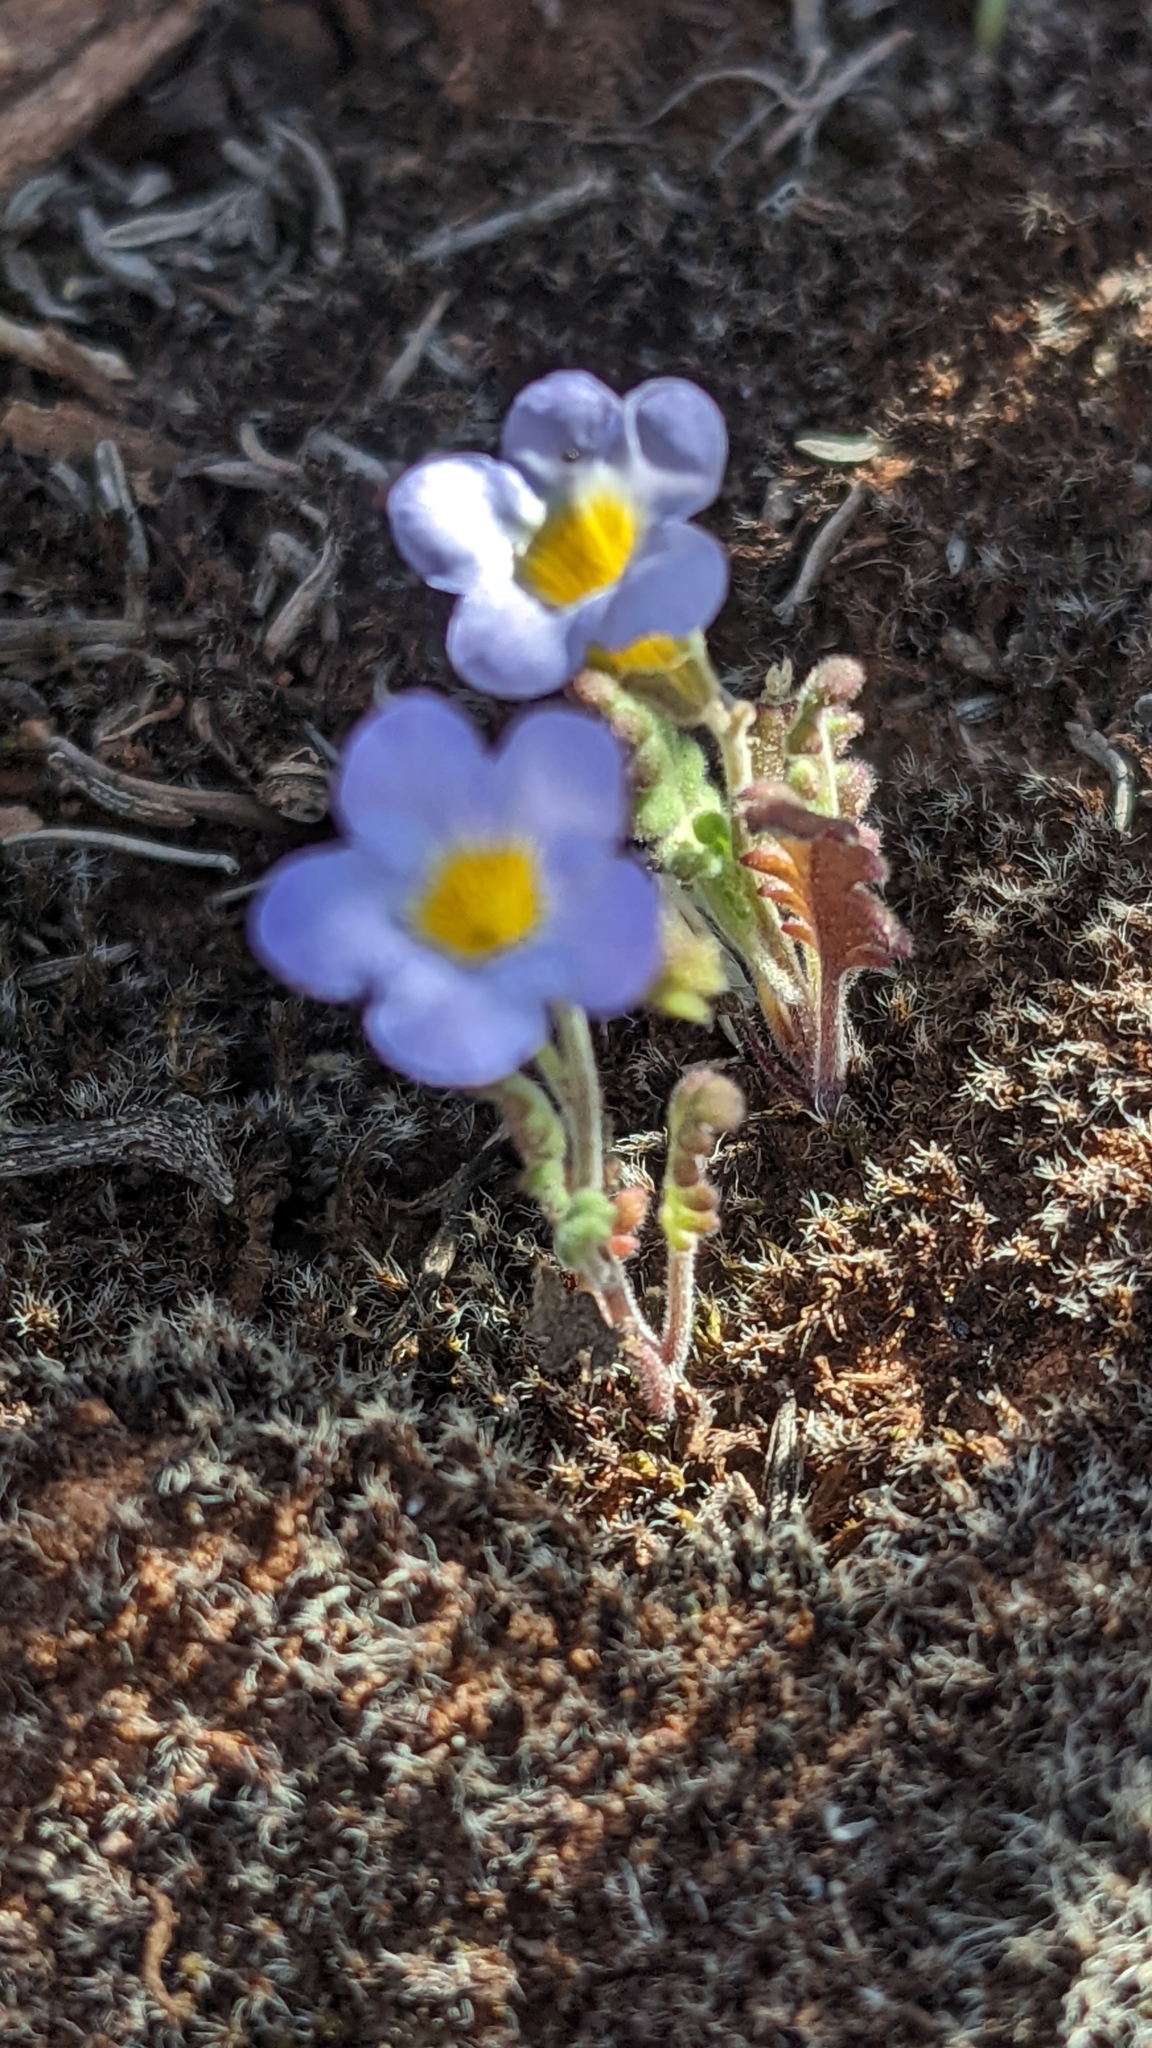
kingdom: Plantae
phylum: Tracheophyta
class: Magnoliopsida
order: Boraginales
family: Hydrophyllaceae
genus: Phacelia
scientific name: Phacelia fremontii
